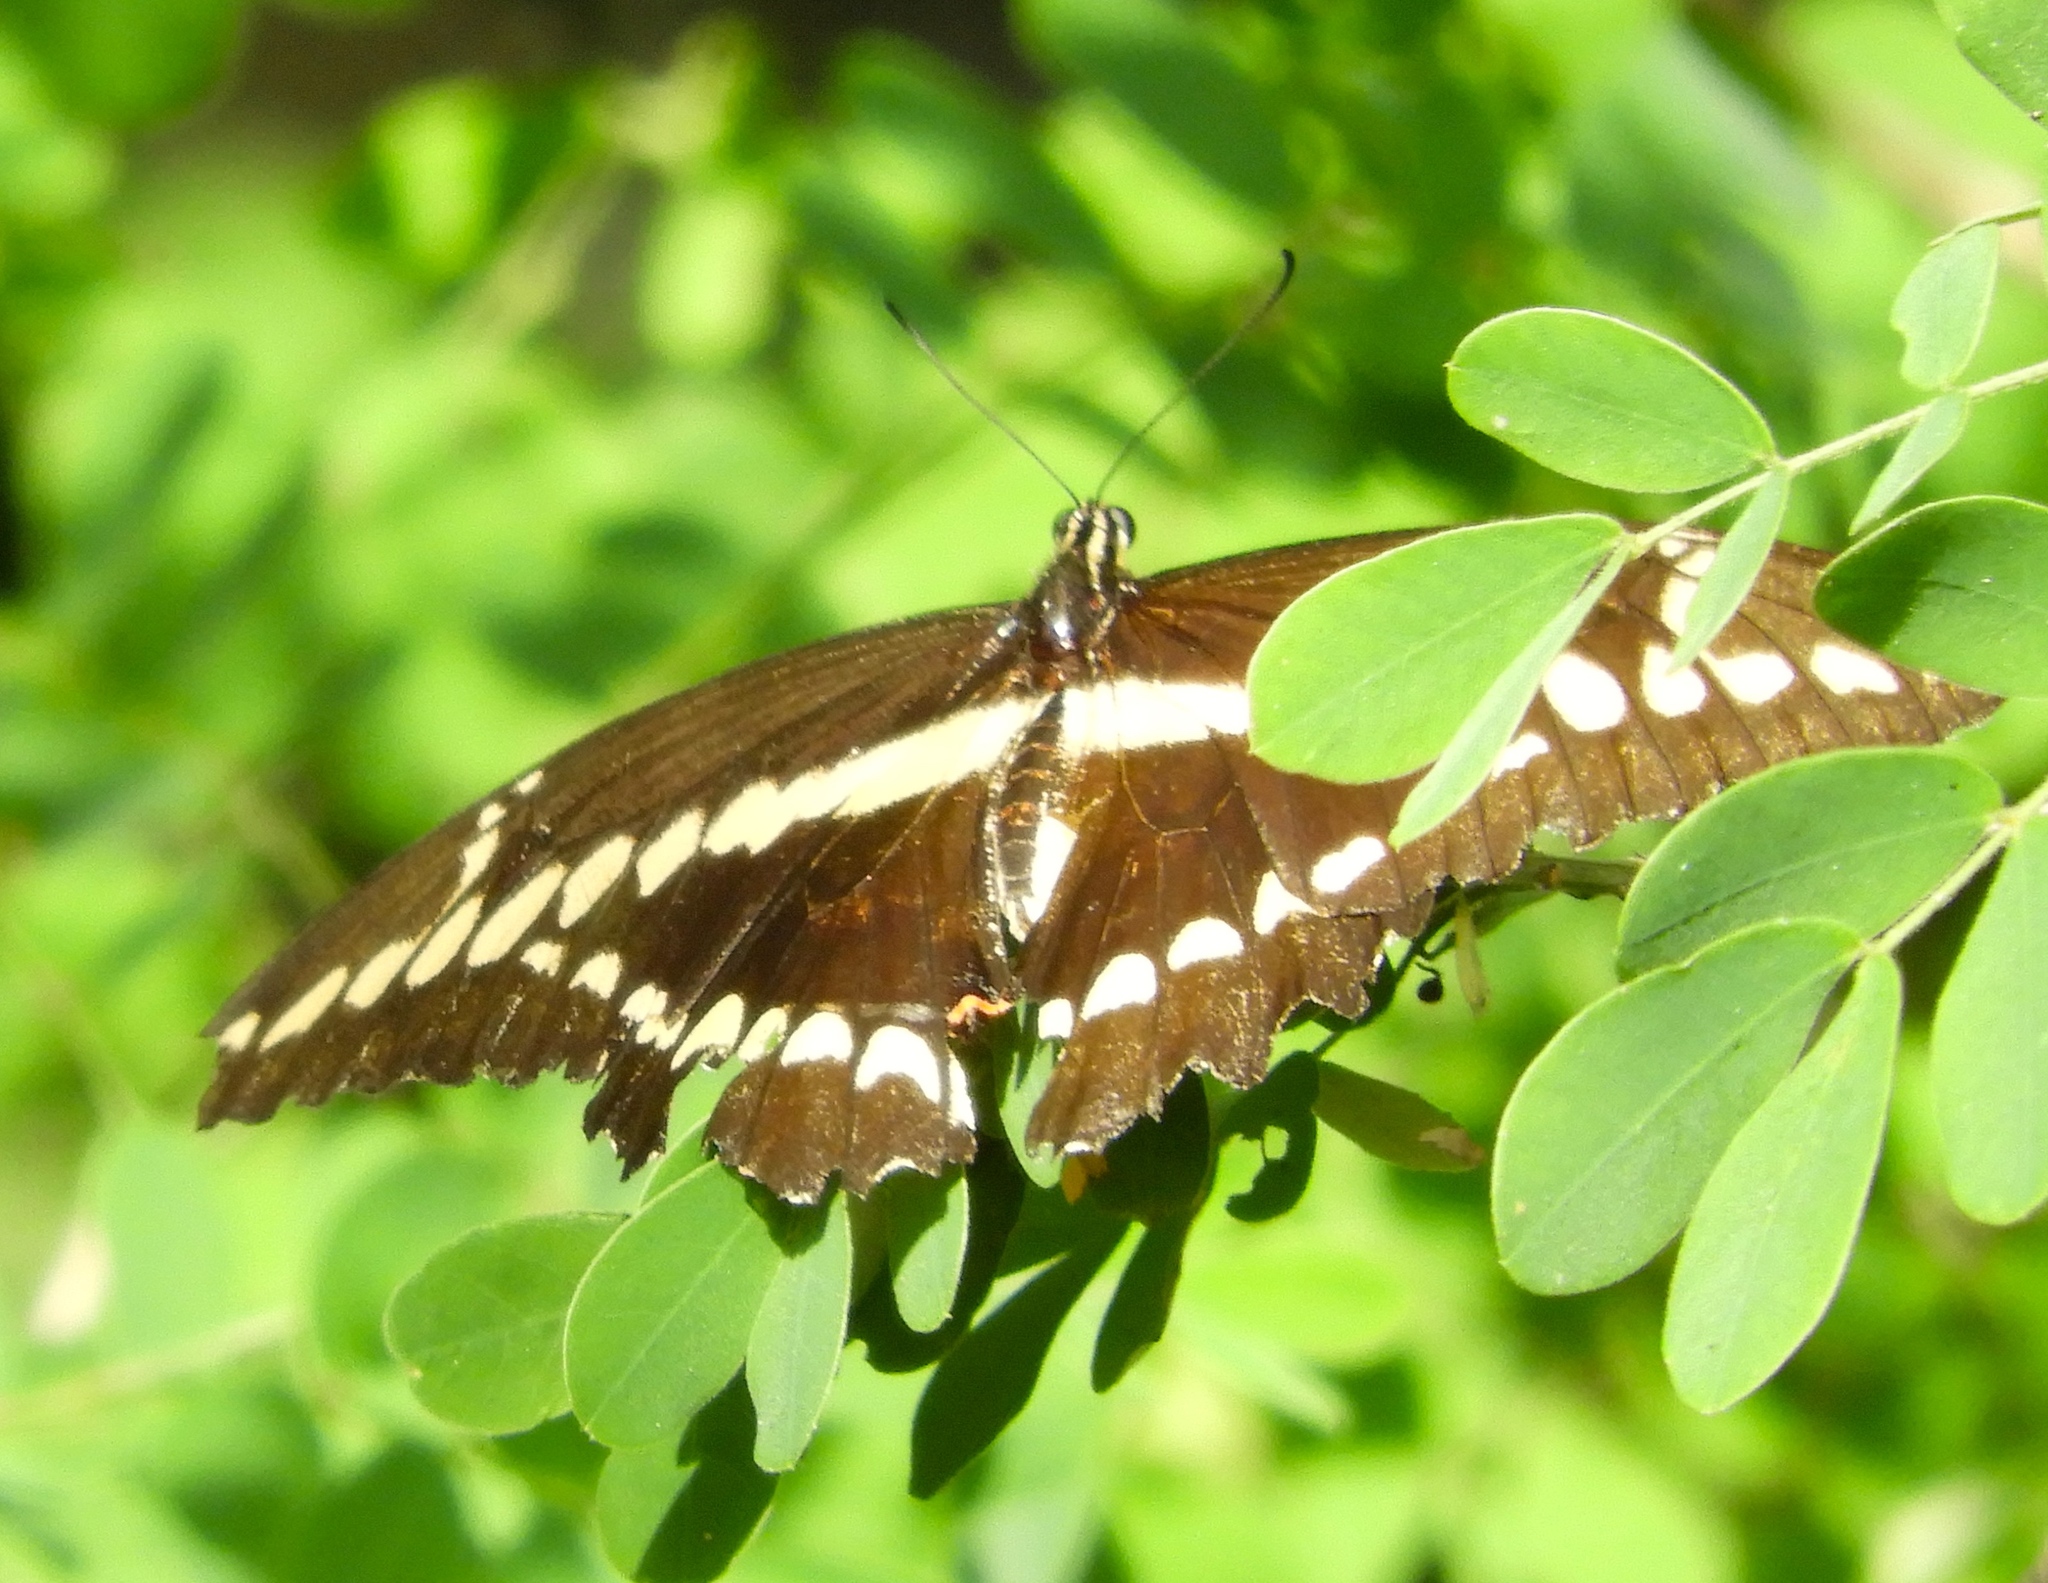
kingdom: Animalia
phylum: Arthropoda
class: Insecta
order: Lepidoptera
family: Papilionidae
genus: Papilio
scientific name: Papilio rumiko
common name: Western giant swallowtail
